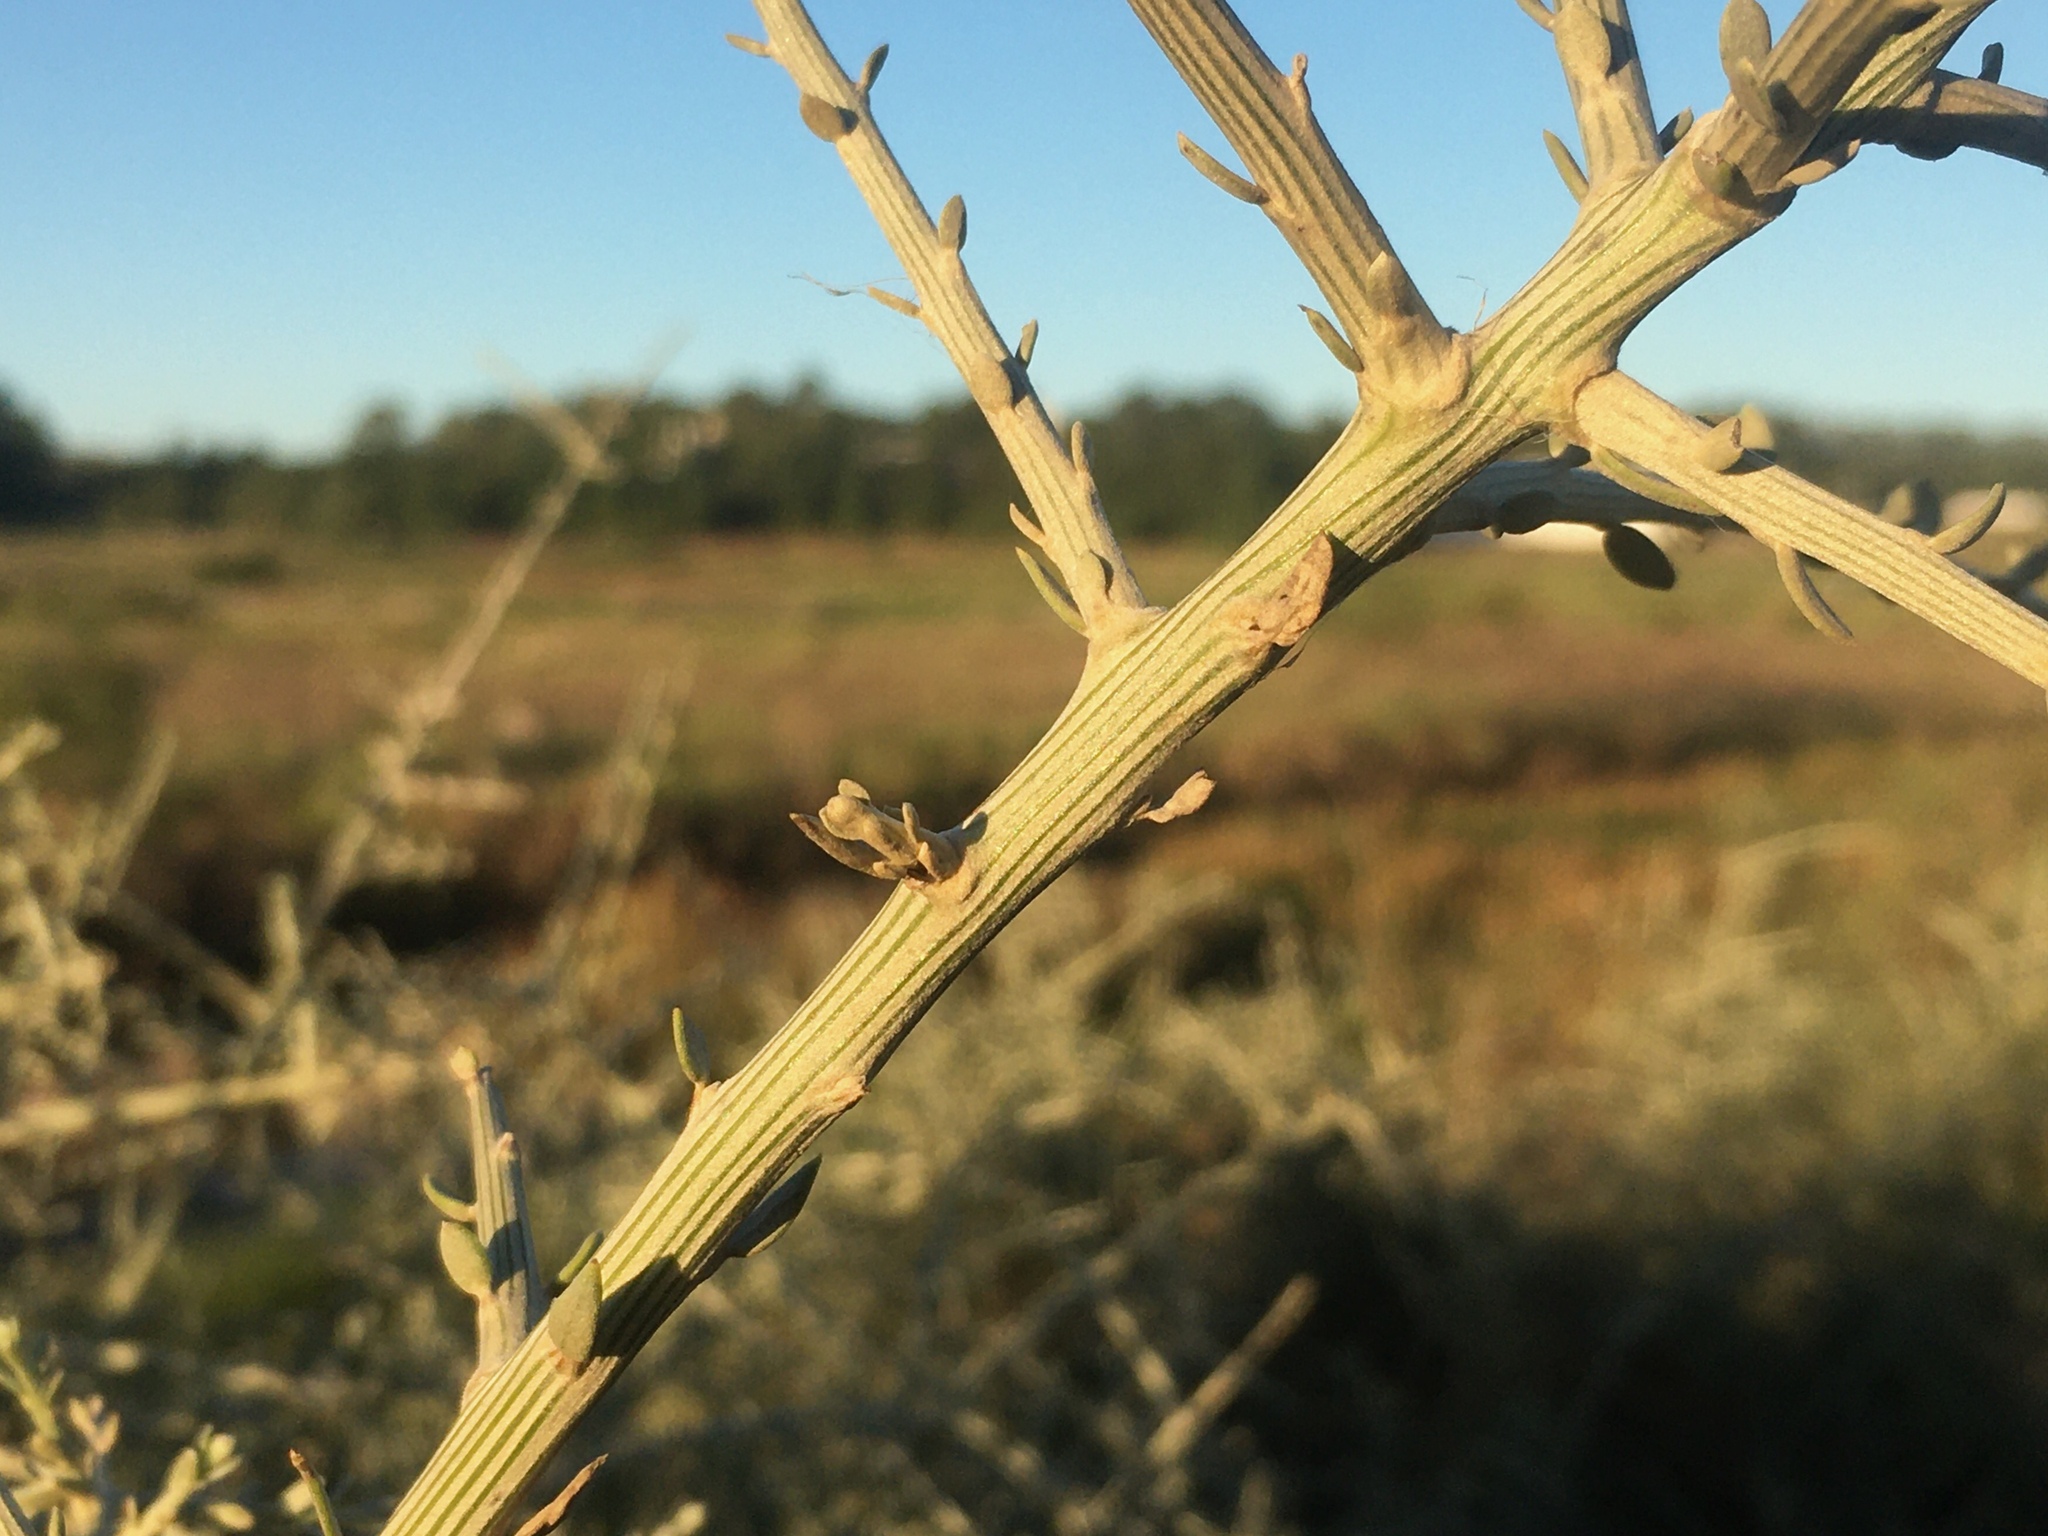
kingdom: Plantae
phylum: Tracheophyta
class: Magnoliopsida
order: Asterales
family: Asteraceae
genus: Cyclolepis
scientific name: Cyclolepis genistoides
